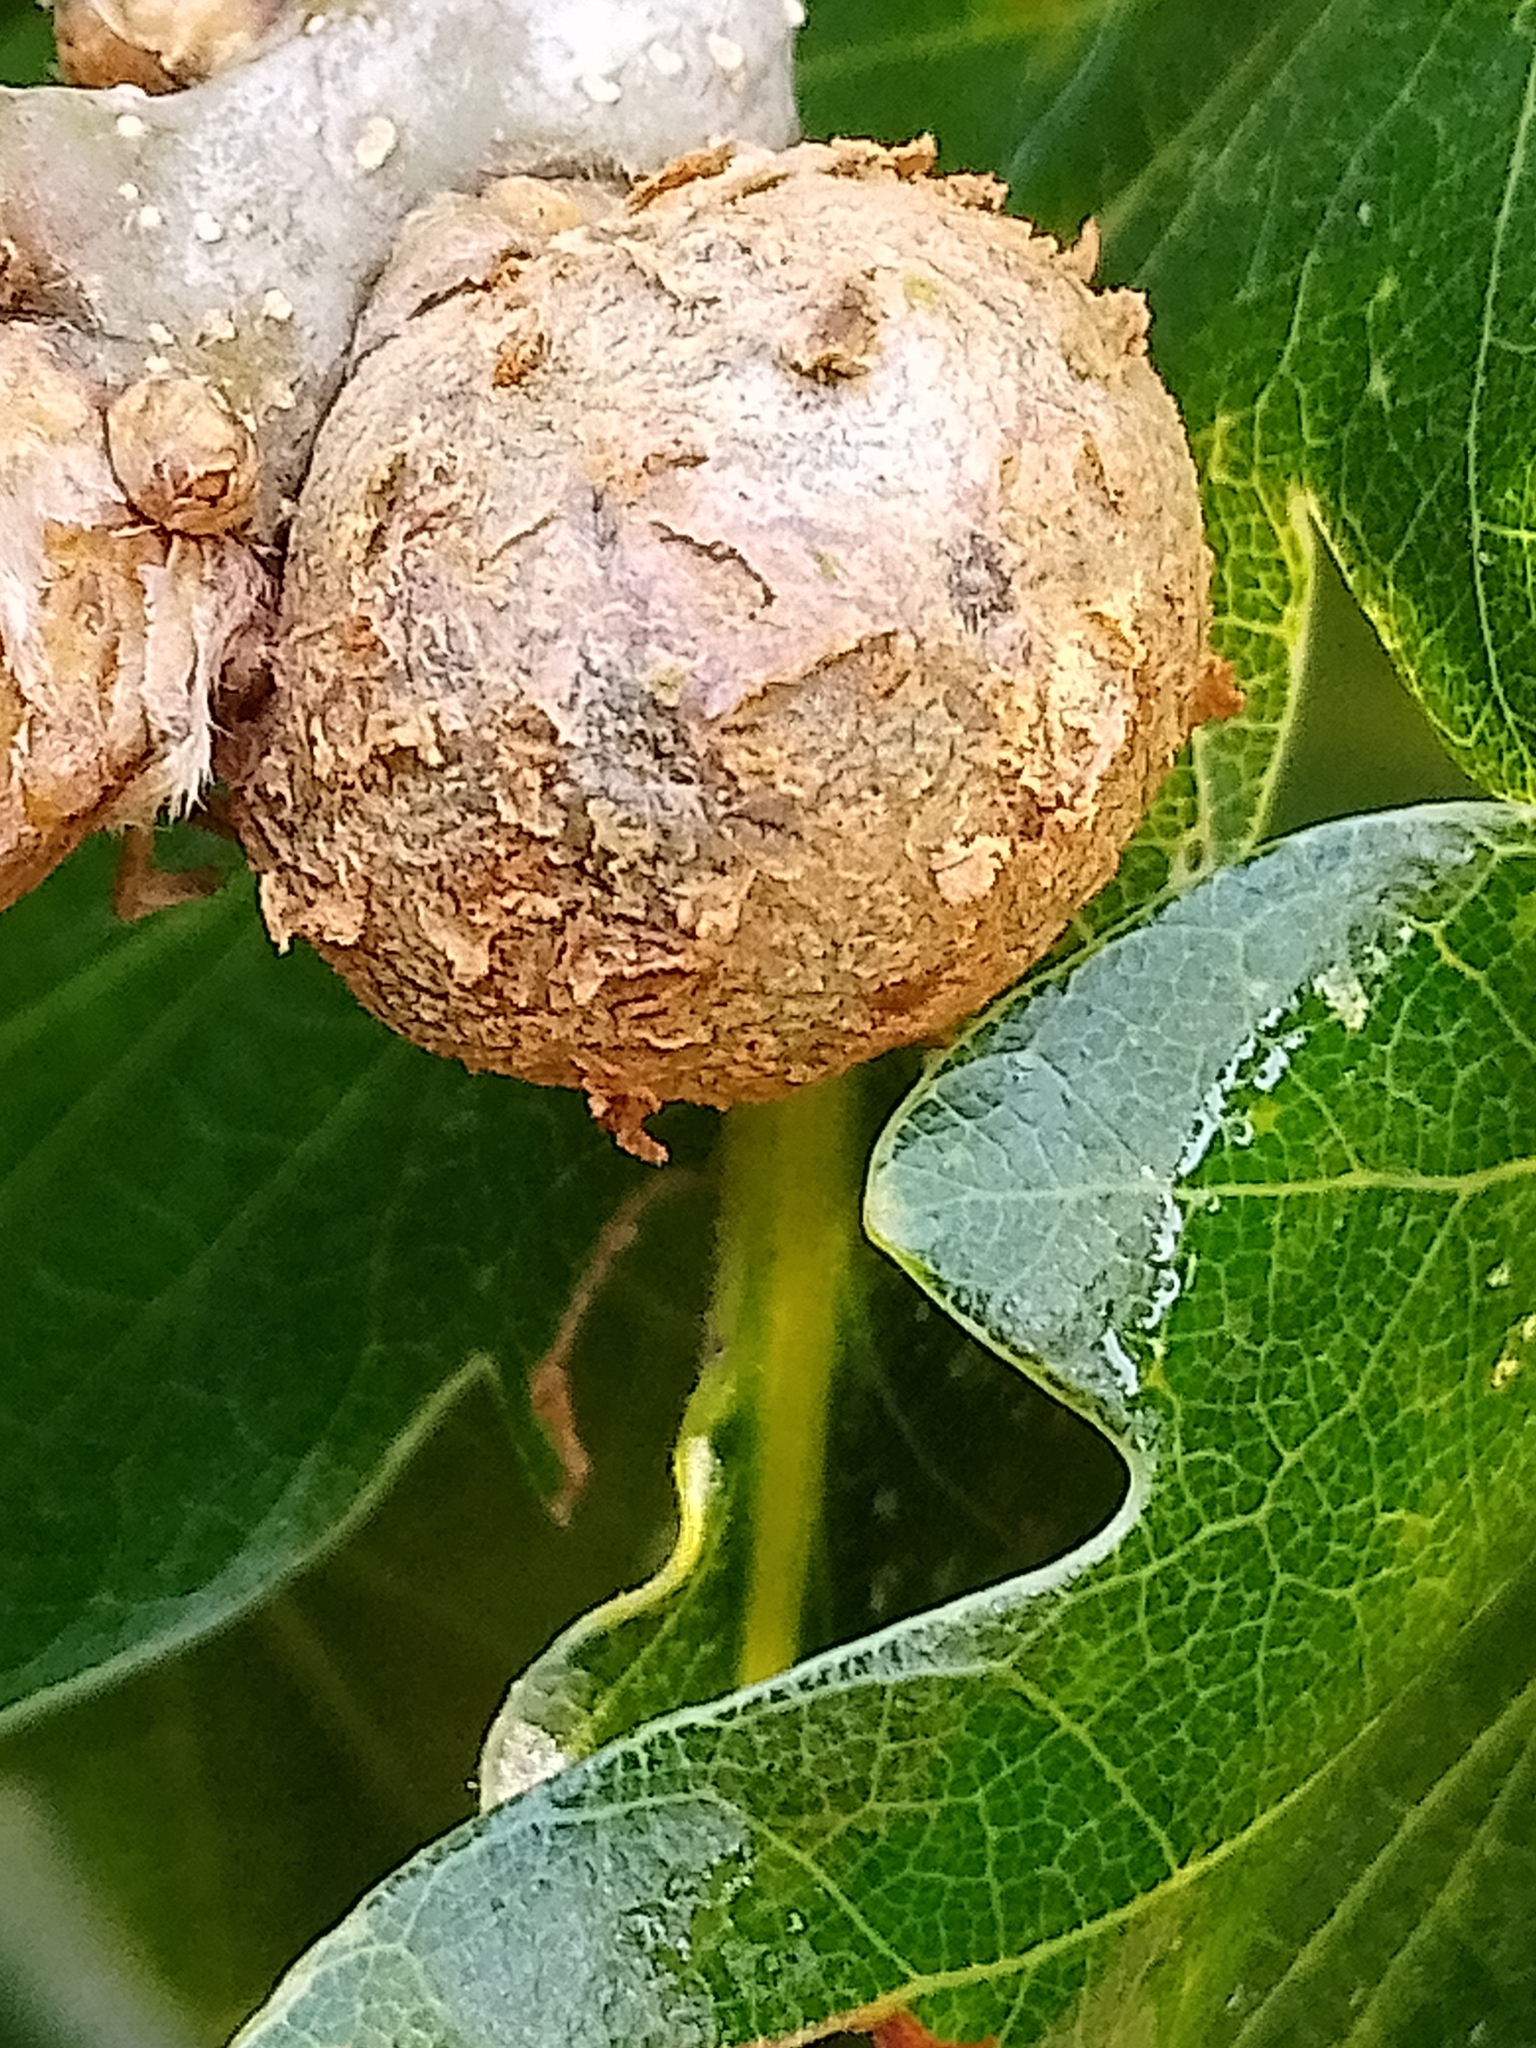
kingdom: Animalia
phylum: Arthropoda
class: Insecta
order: Hymenoptera
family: Cynipidae
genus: Andricus
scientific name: Andricus lignicolus
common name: Cola-nut gall
